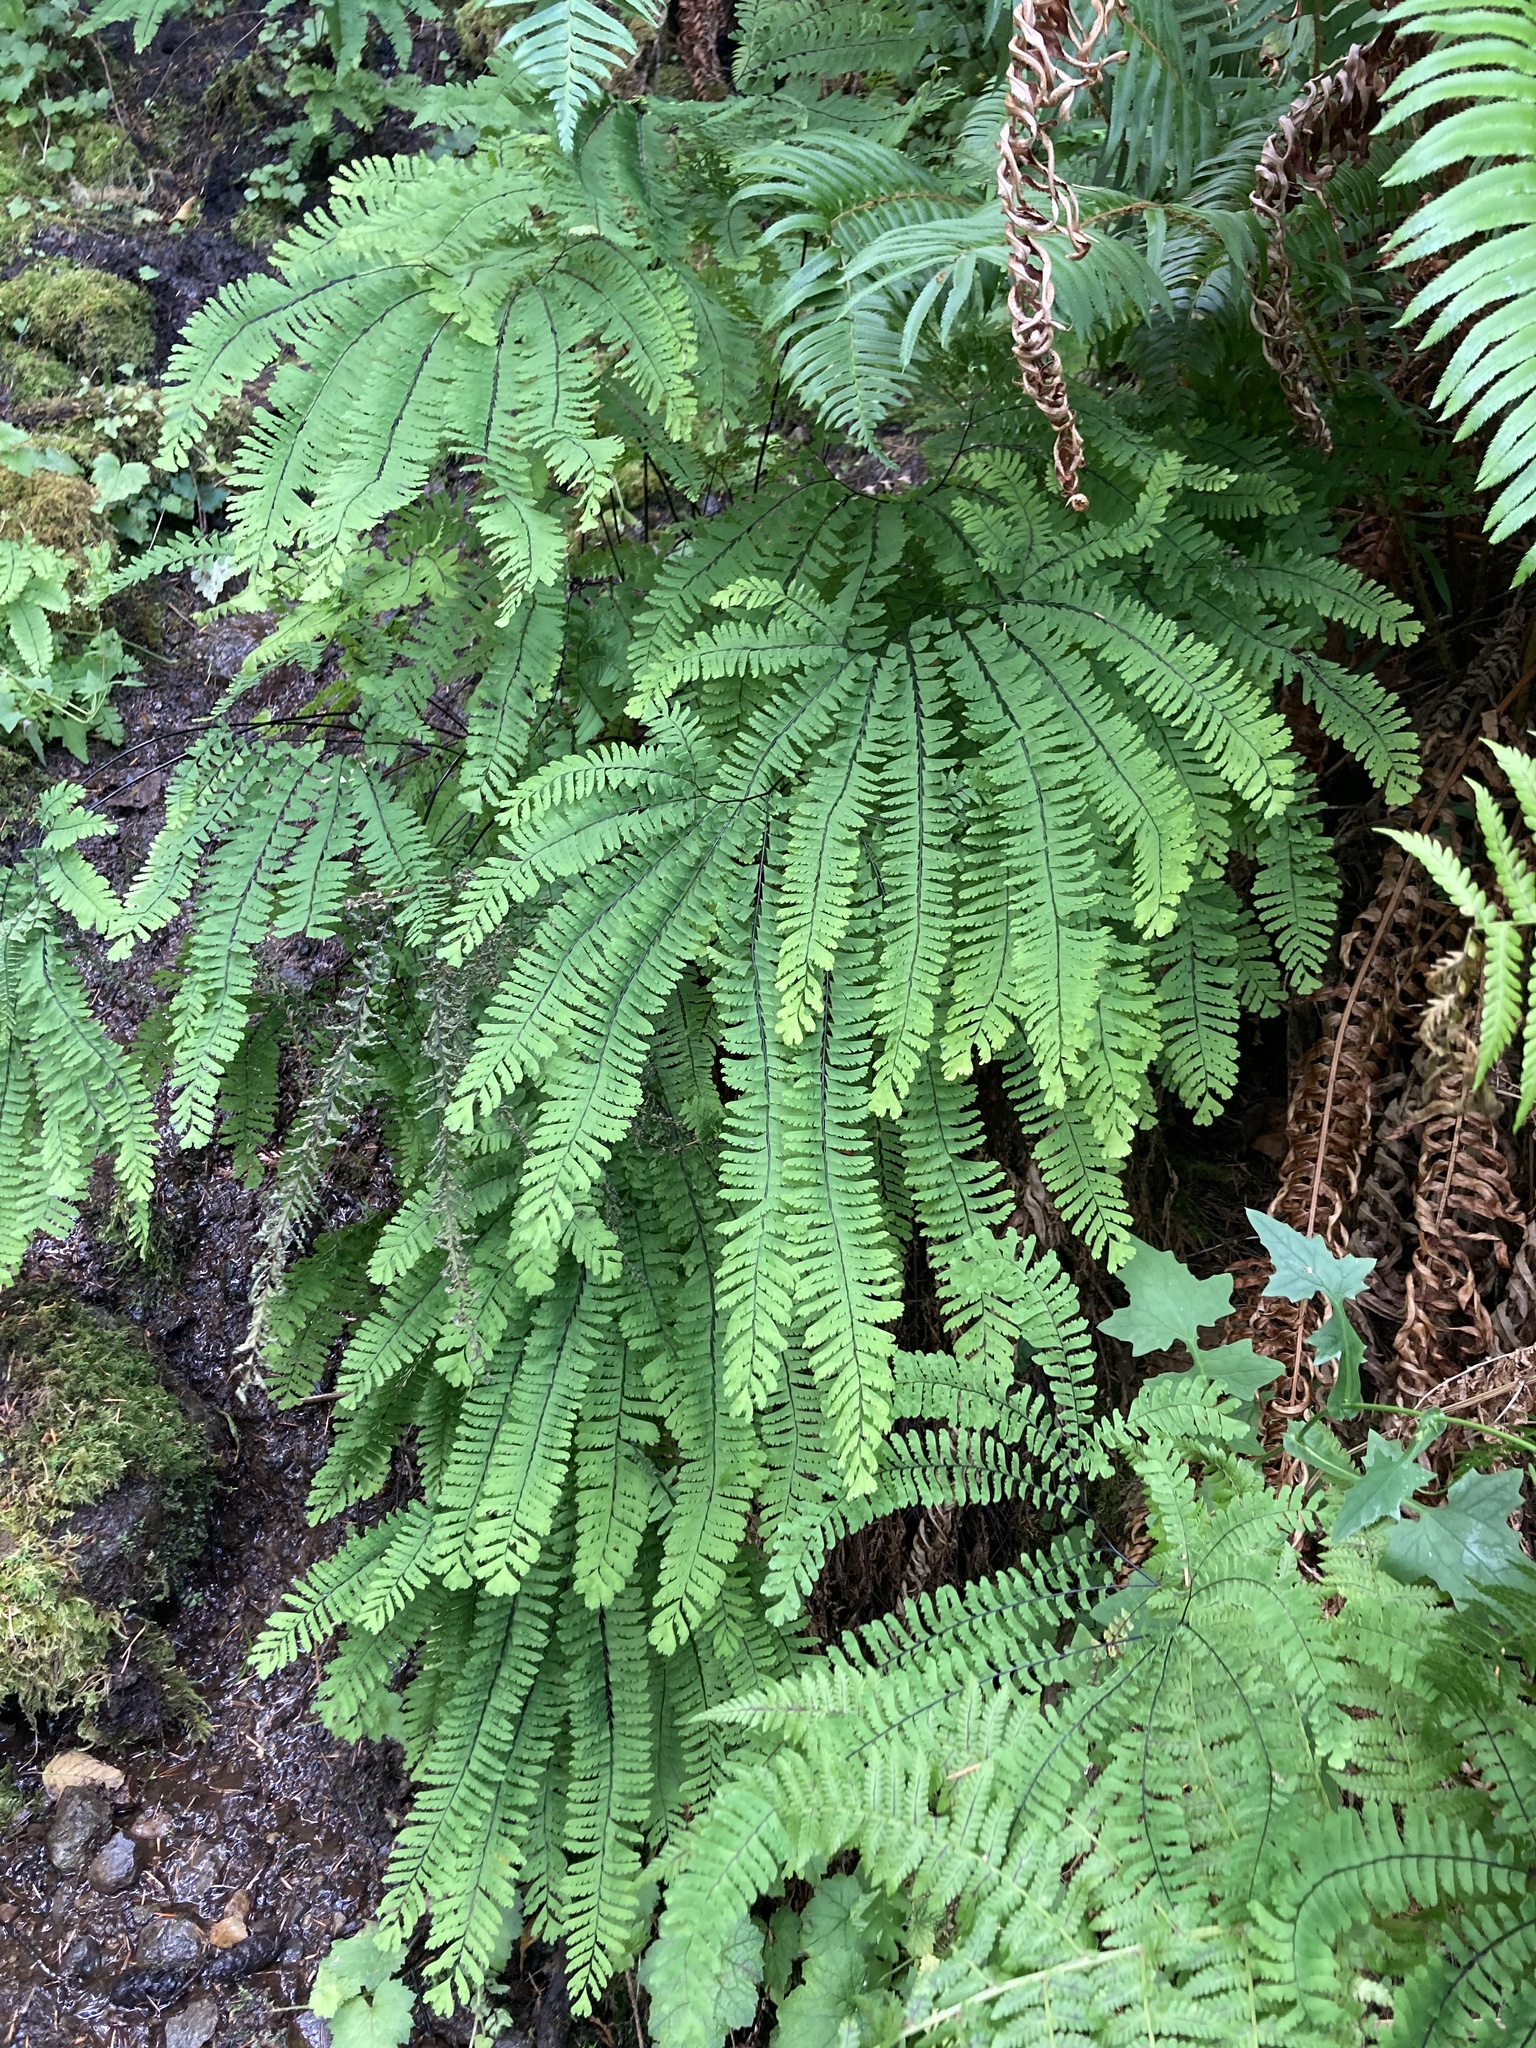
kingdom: Plantae
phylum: Tracheophyta
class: Polypodiopsida
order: Polypodiales
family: Pteridaceae
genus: Adiantum
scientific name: Adiantum aleuticum
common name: Aleutian maidenhair fern
